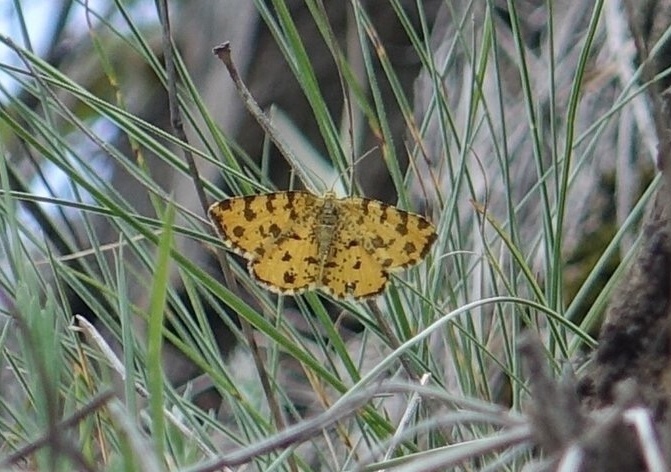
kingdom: Animalia
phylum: Arthropoda
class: Insecta
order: Lepidoptera
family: Geometridae
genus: Pseudopanthera
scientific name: Pseudopanthera macularia
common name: Speckled yellow
